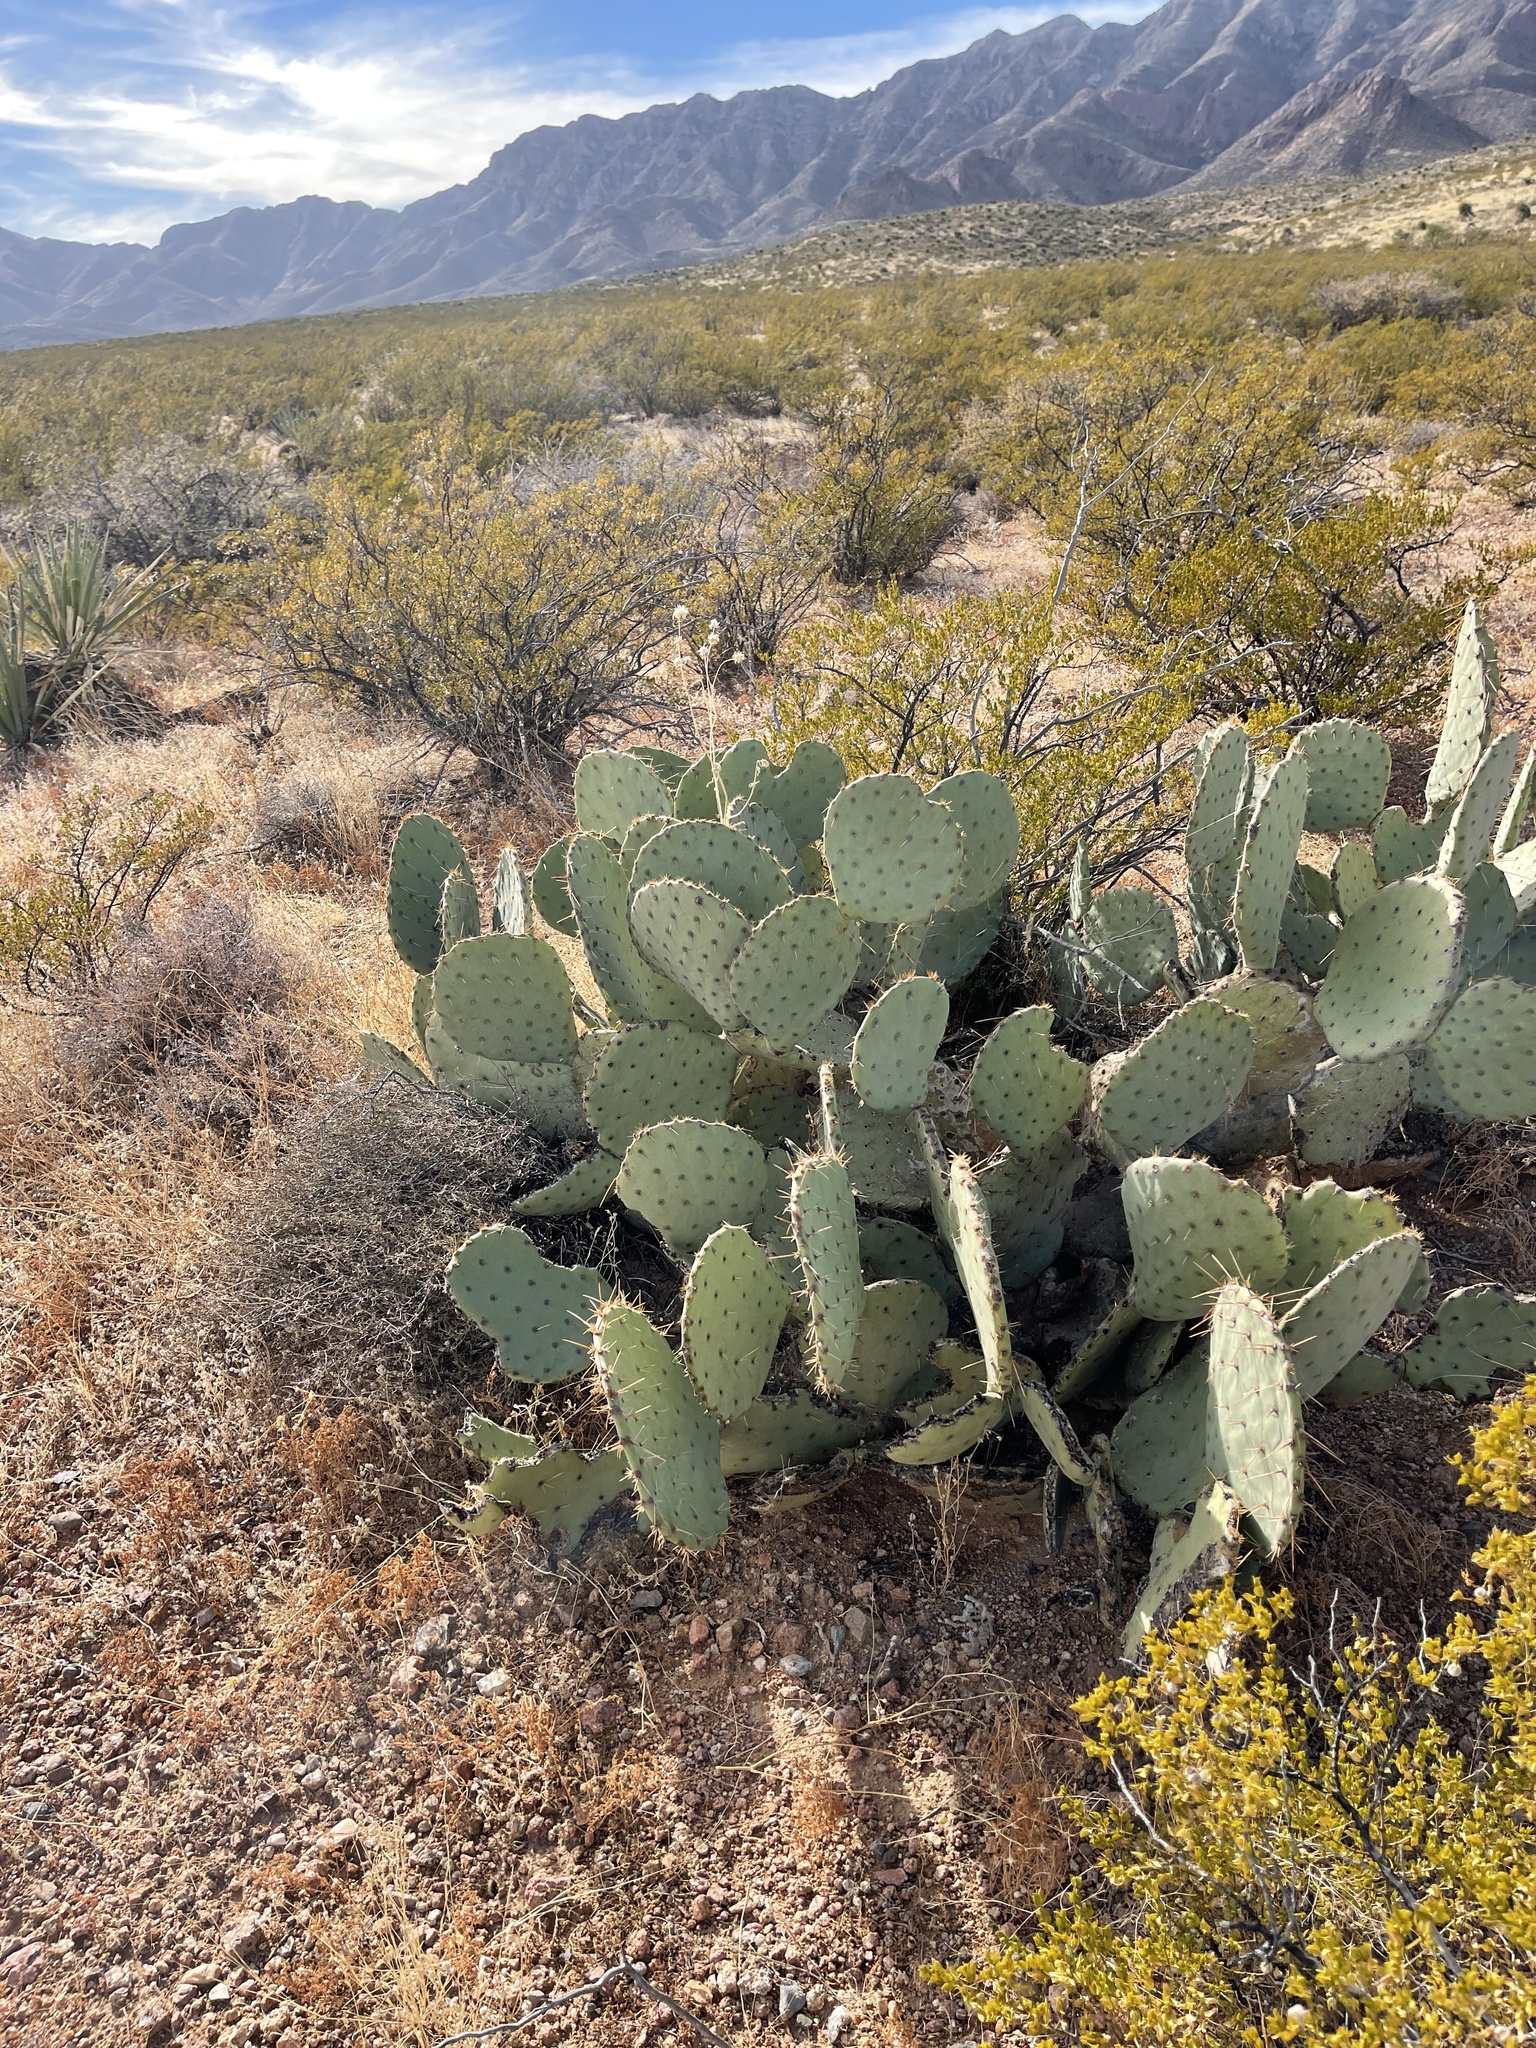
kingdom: Plantae
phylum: Tracheophyta
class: Magnoliopsida
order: Caryophyllales
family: Cactaceae
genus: Opuntia
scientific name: Opuntia engelmannii
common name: Cactus-apple
